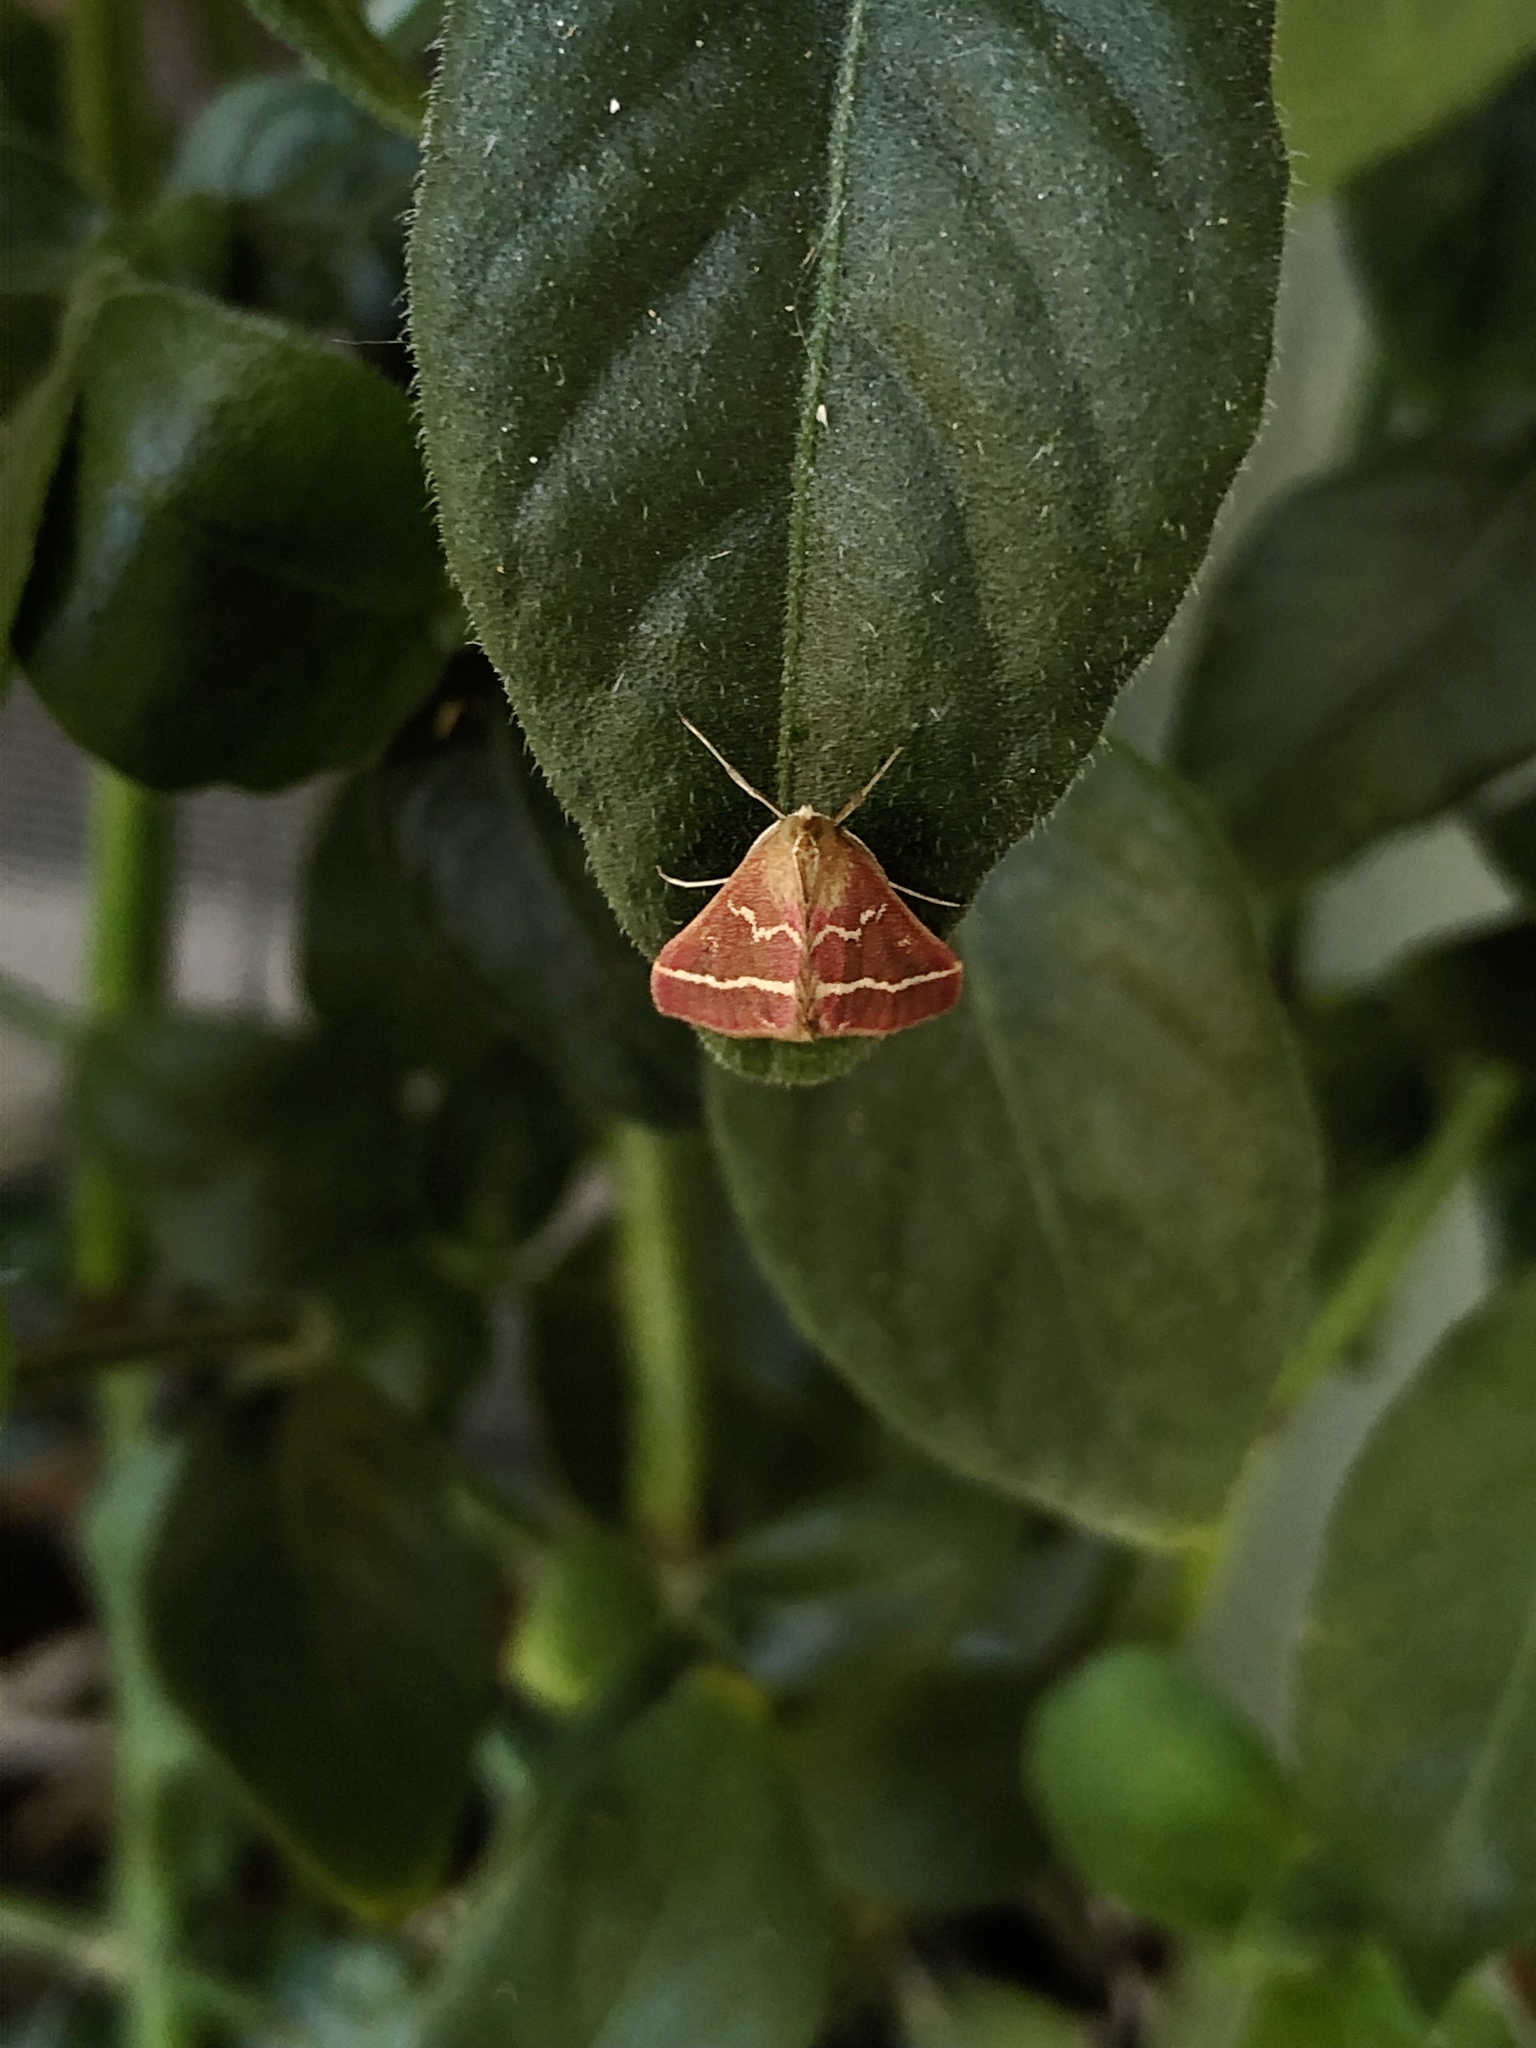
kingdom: Animalia
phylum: Arthropoda
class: Insecta
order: Lepidoptera
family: Crambidae
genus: Pyrausta
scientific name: Pyrausta volupialis
